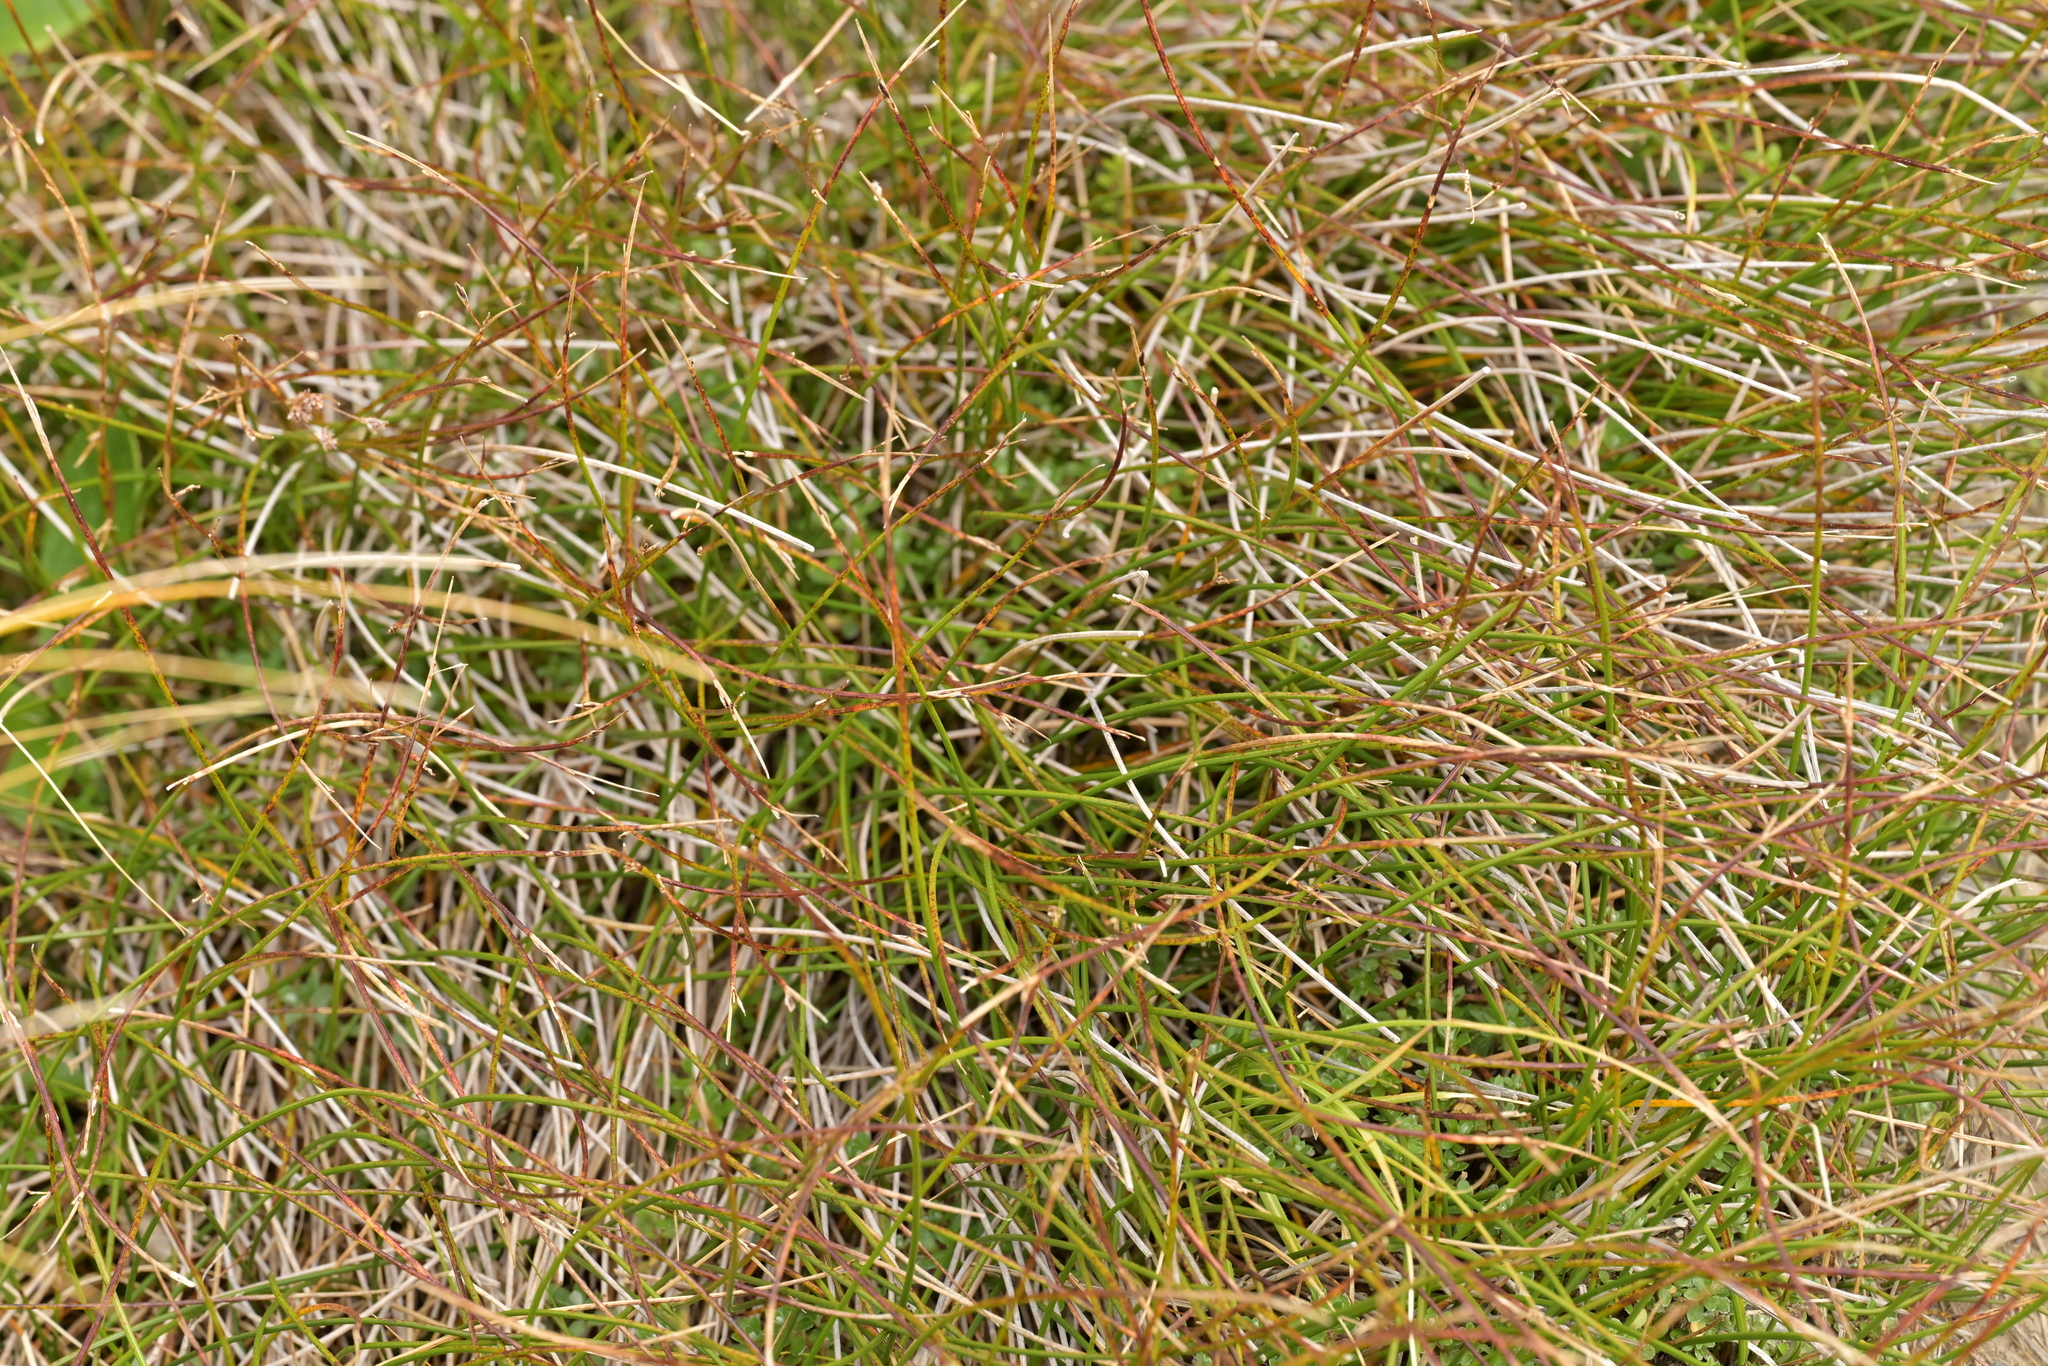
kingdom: Plantae
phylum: Tracheophyta
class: Liliopsida
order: Poales
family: Cyperaceae
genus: Schoenus
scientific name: Schoenus pauciflorus
